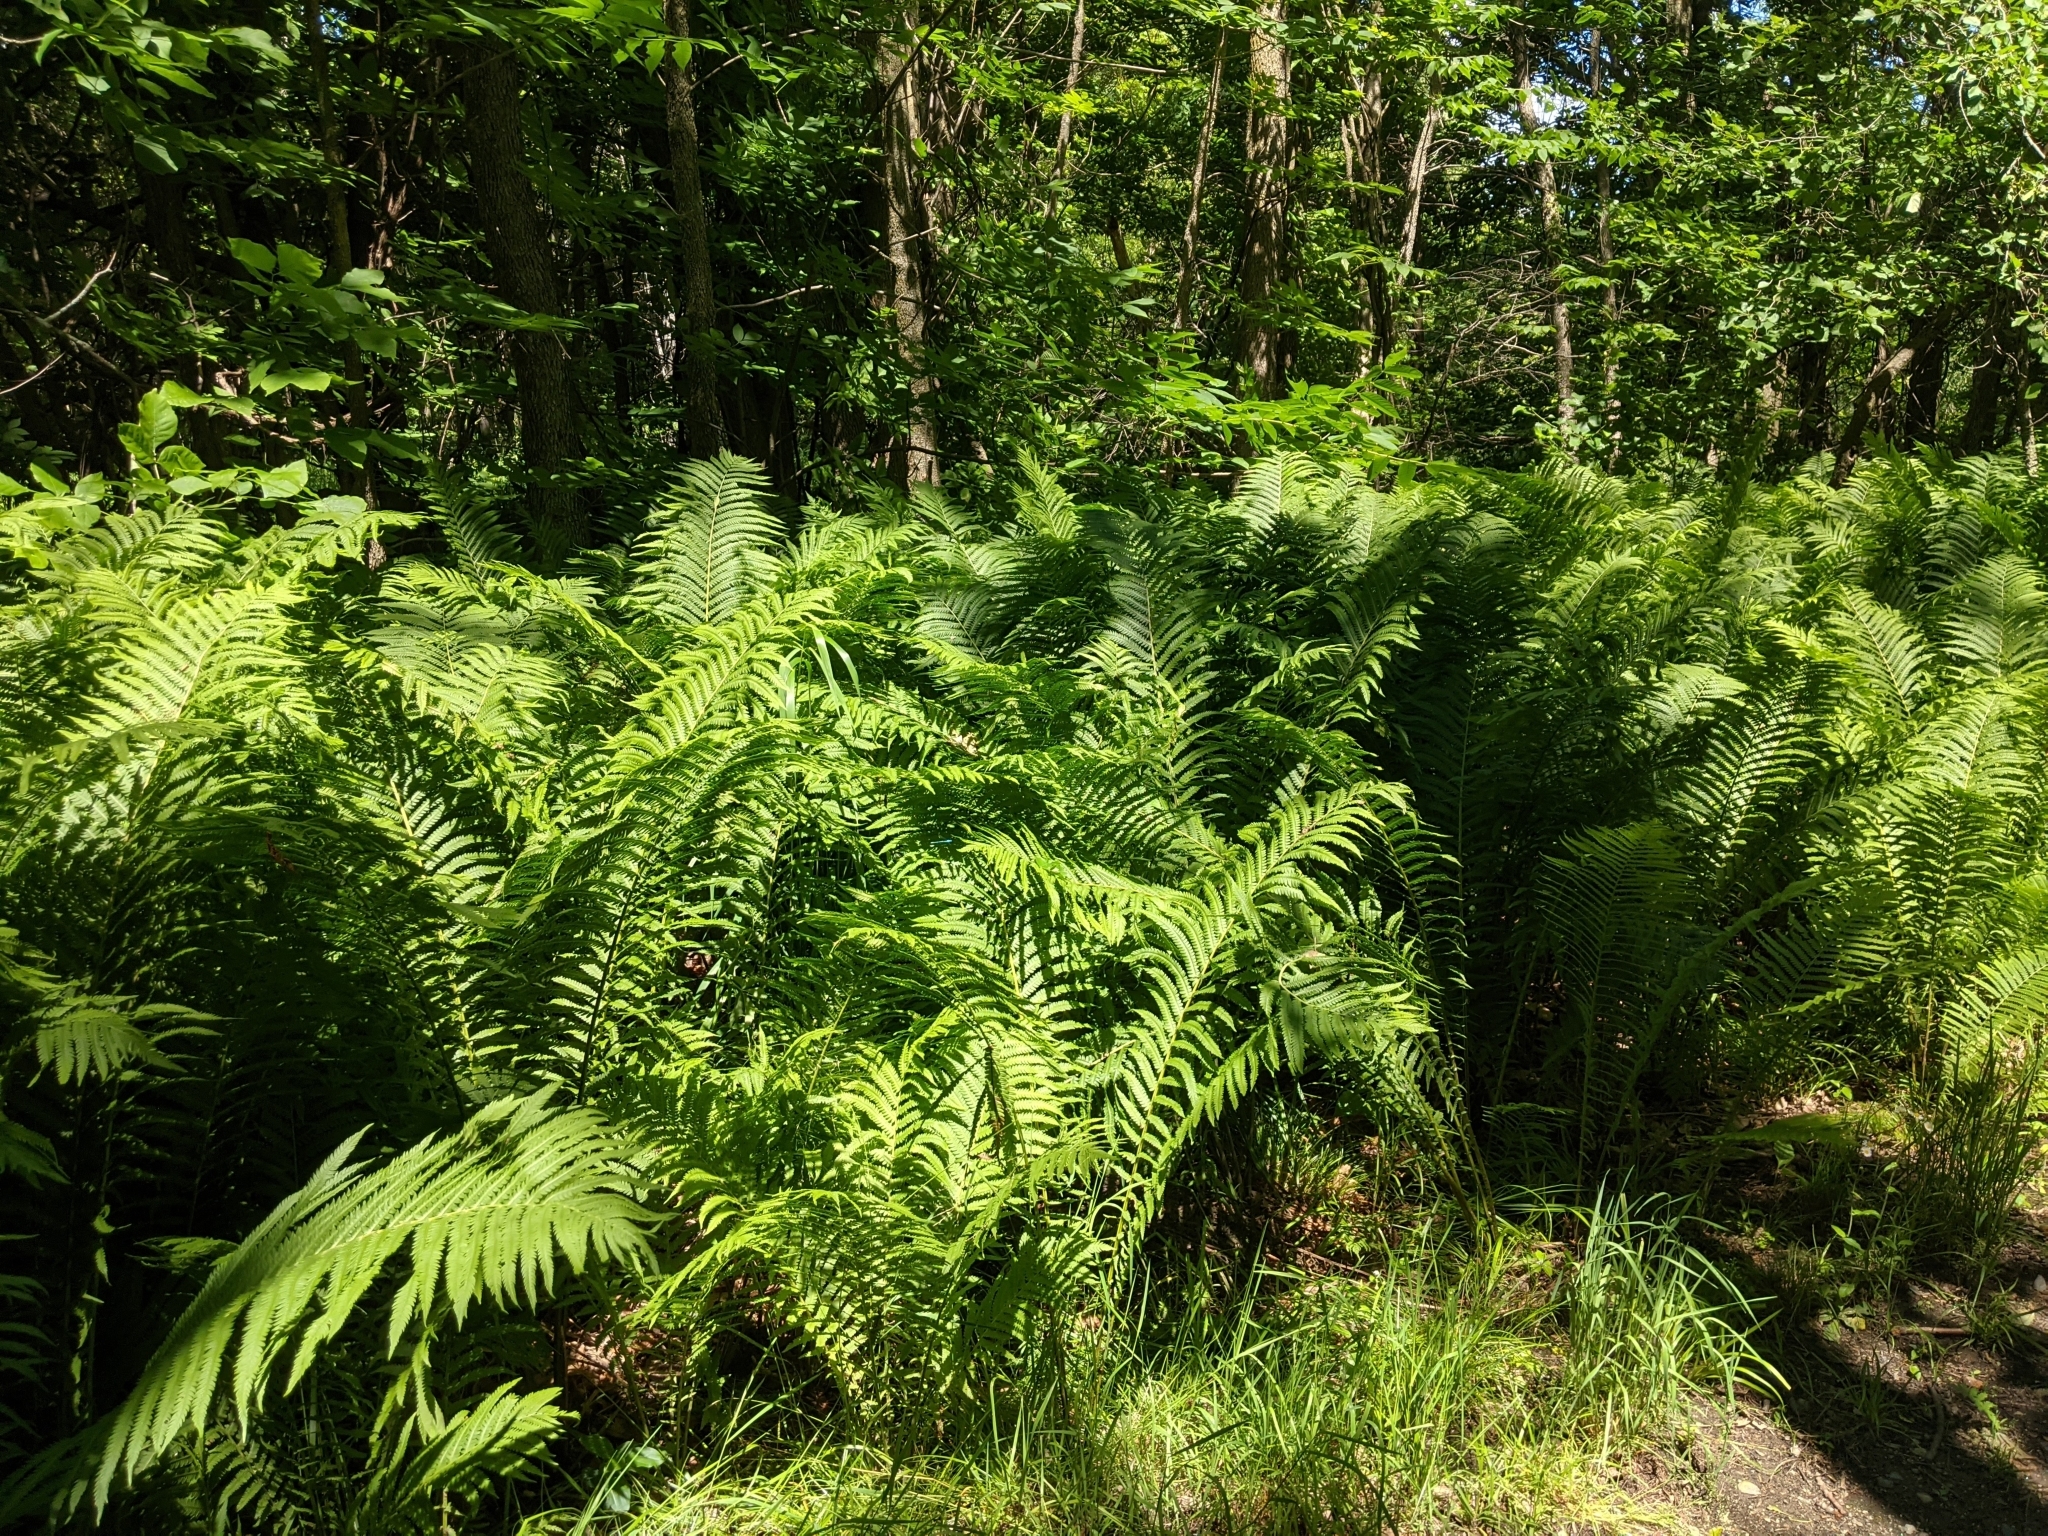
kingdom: Plantae
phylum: Tracheophyta
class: Polypodiopsida
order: Polypodiales
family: Onocleaceae
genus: Matteuccia
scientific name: Matteuccia struthiopteris
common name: Ostrich fern
